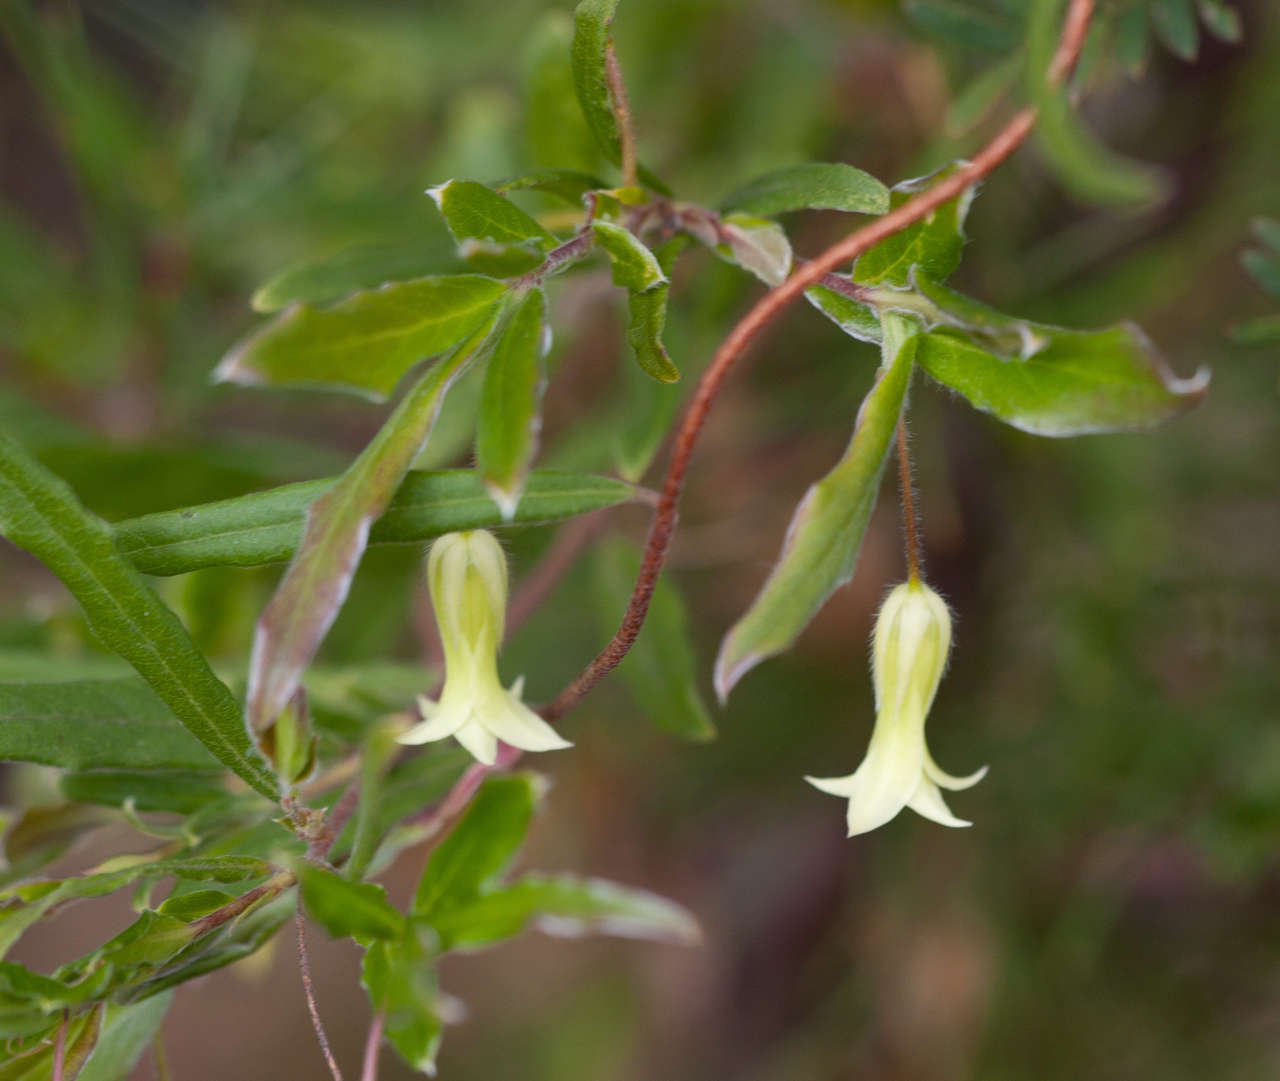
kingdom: Plantae
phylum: Tracheophyta
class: Magnoliopsida
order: Apiales
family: Pittosporaceae
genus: Billardiera
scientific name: Billardiera mutabilis
